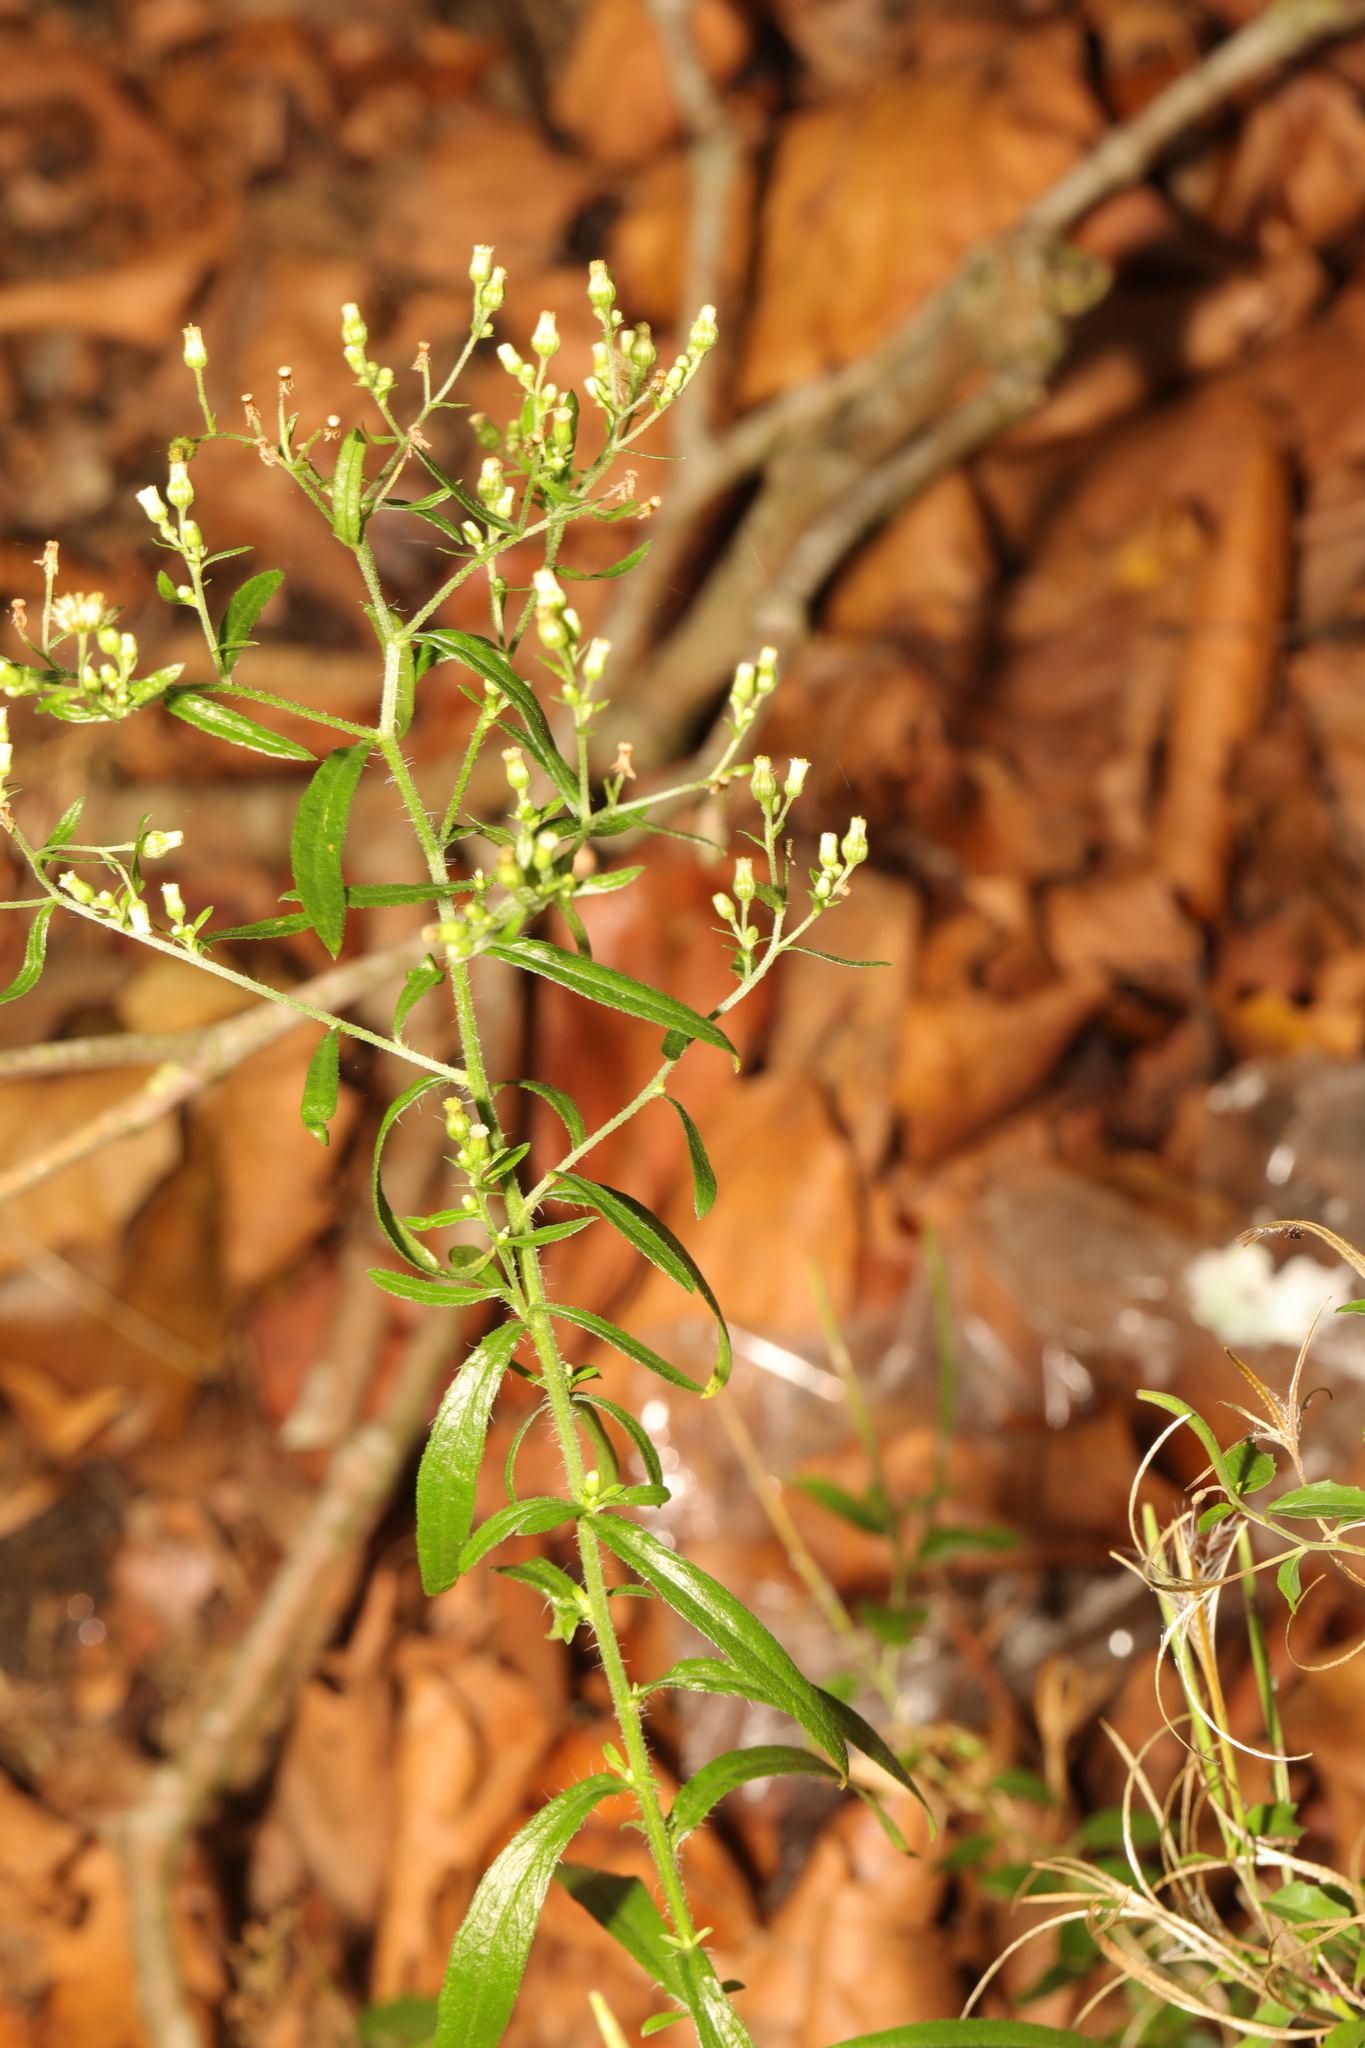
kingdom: Plantae
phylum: Tracheophyta
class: Magnoliopsida
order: Asterales
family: Asteraceae
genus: Erigeron
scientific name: Erigeron canadensis
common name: Canadian fleabane
